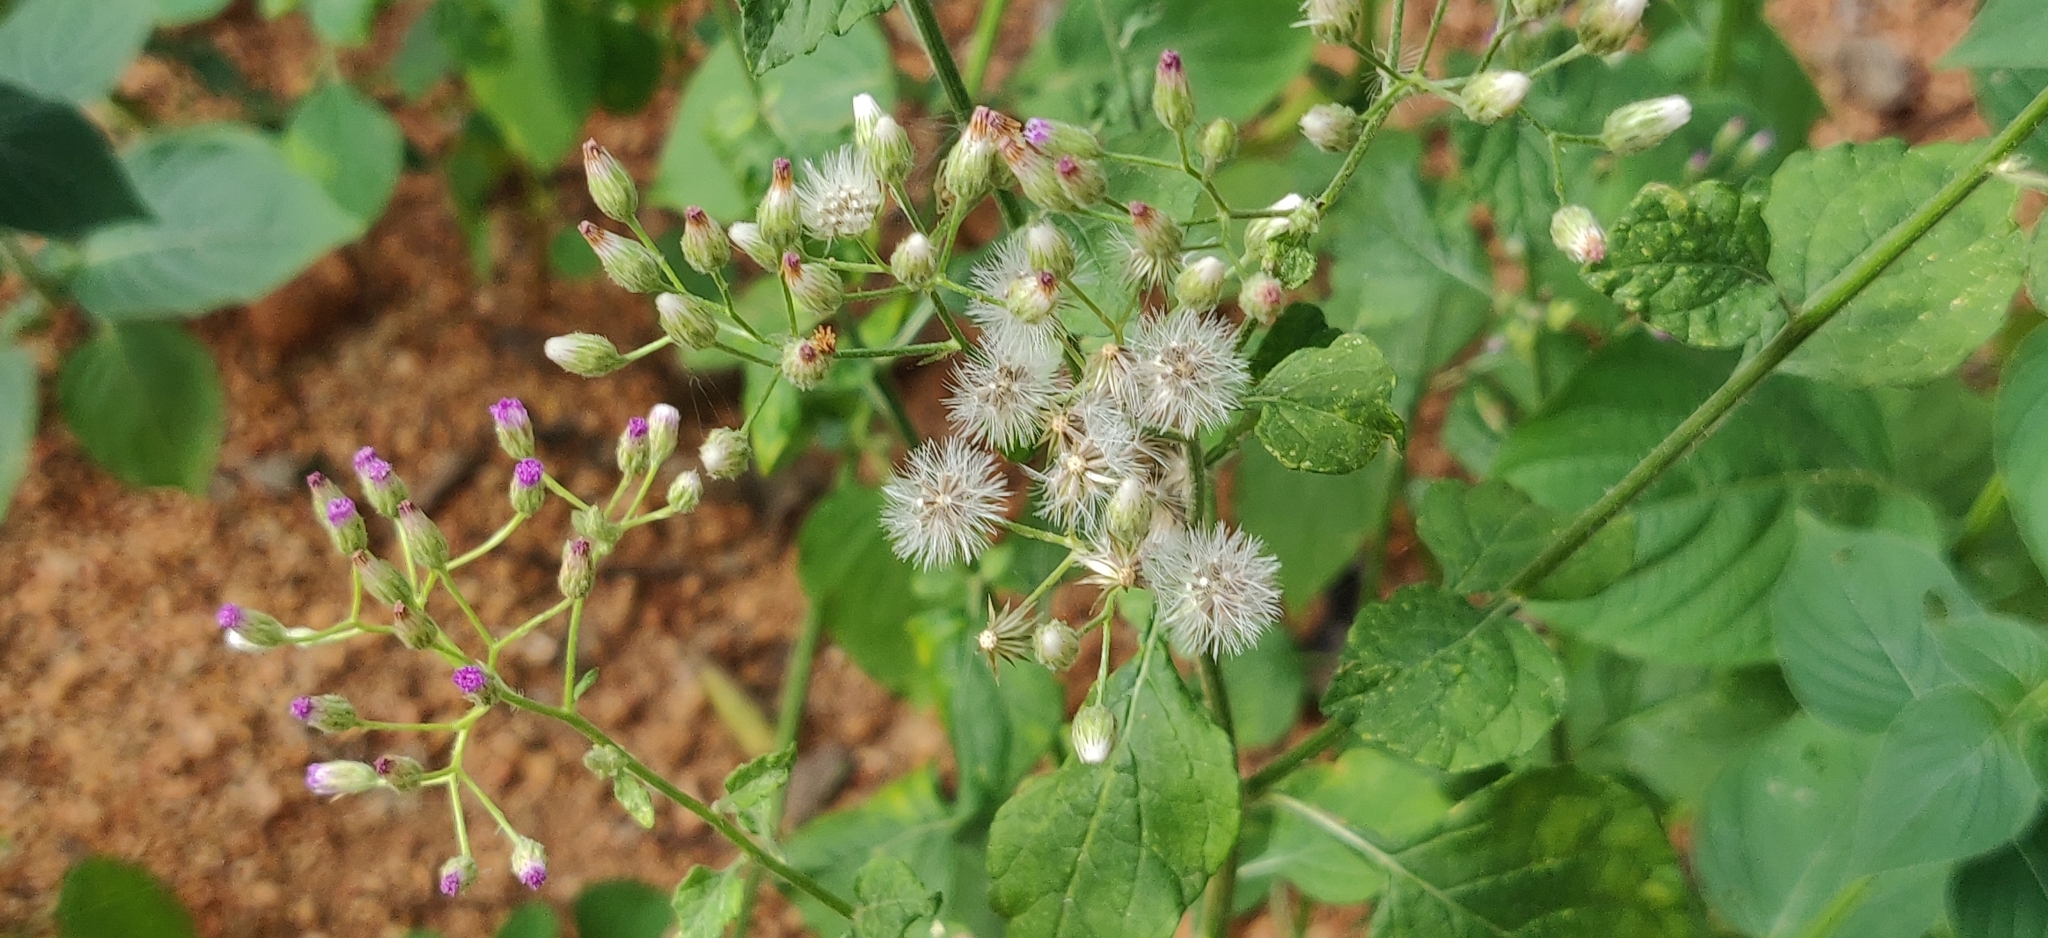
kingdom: Plantae
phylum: Tracheophyta
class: Magnoliopsida
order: Asterales
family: Asteraceae
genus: Cyanthillium
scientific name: Cyanthillium cinereum
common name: Little ironweed
